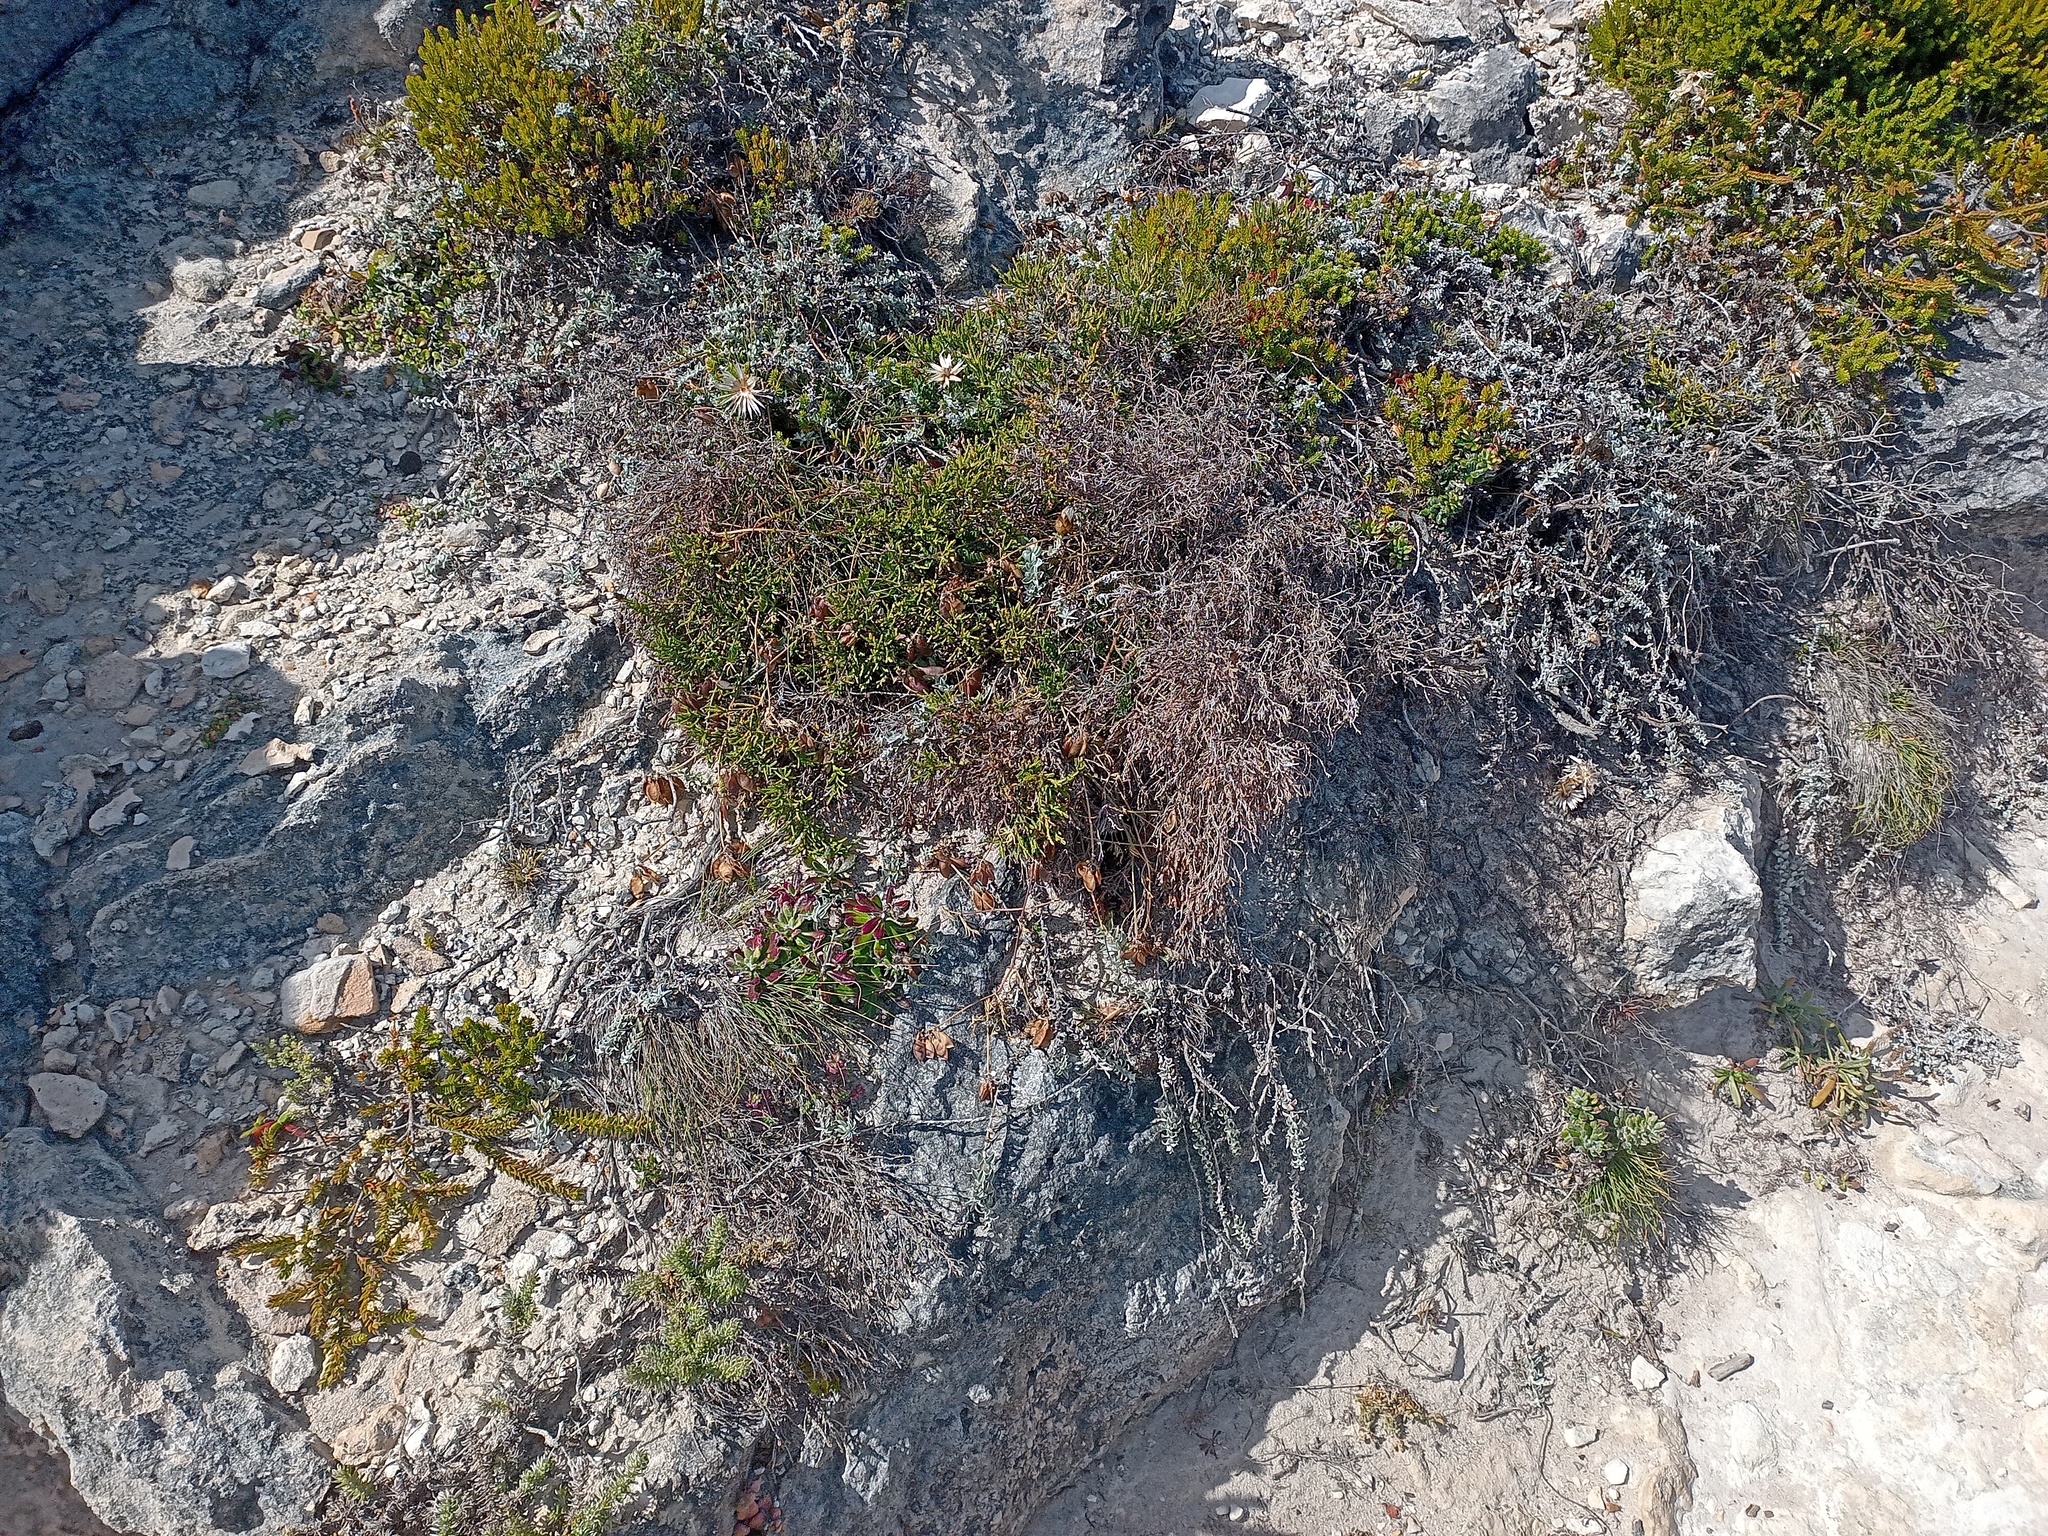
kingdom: Plantae
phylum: Tracheophyta
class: Magnoliopsida
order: Asterales
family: Asteraceae
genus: Helichrysum
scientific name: Helichrysum retortum
